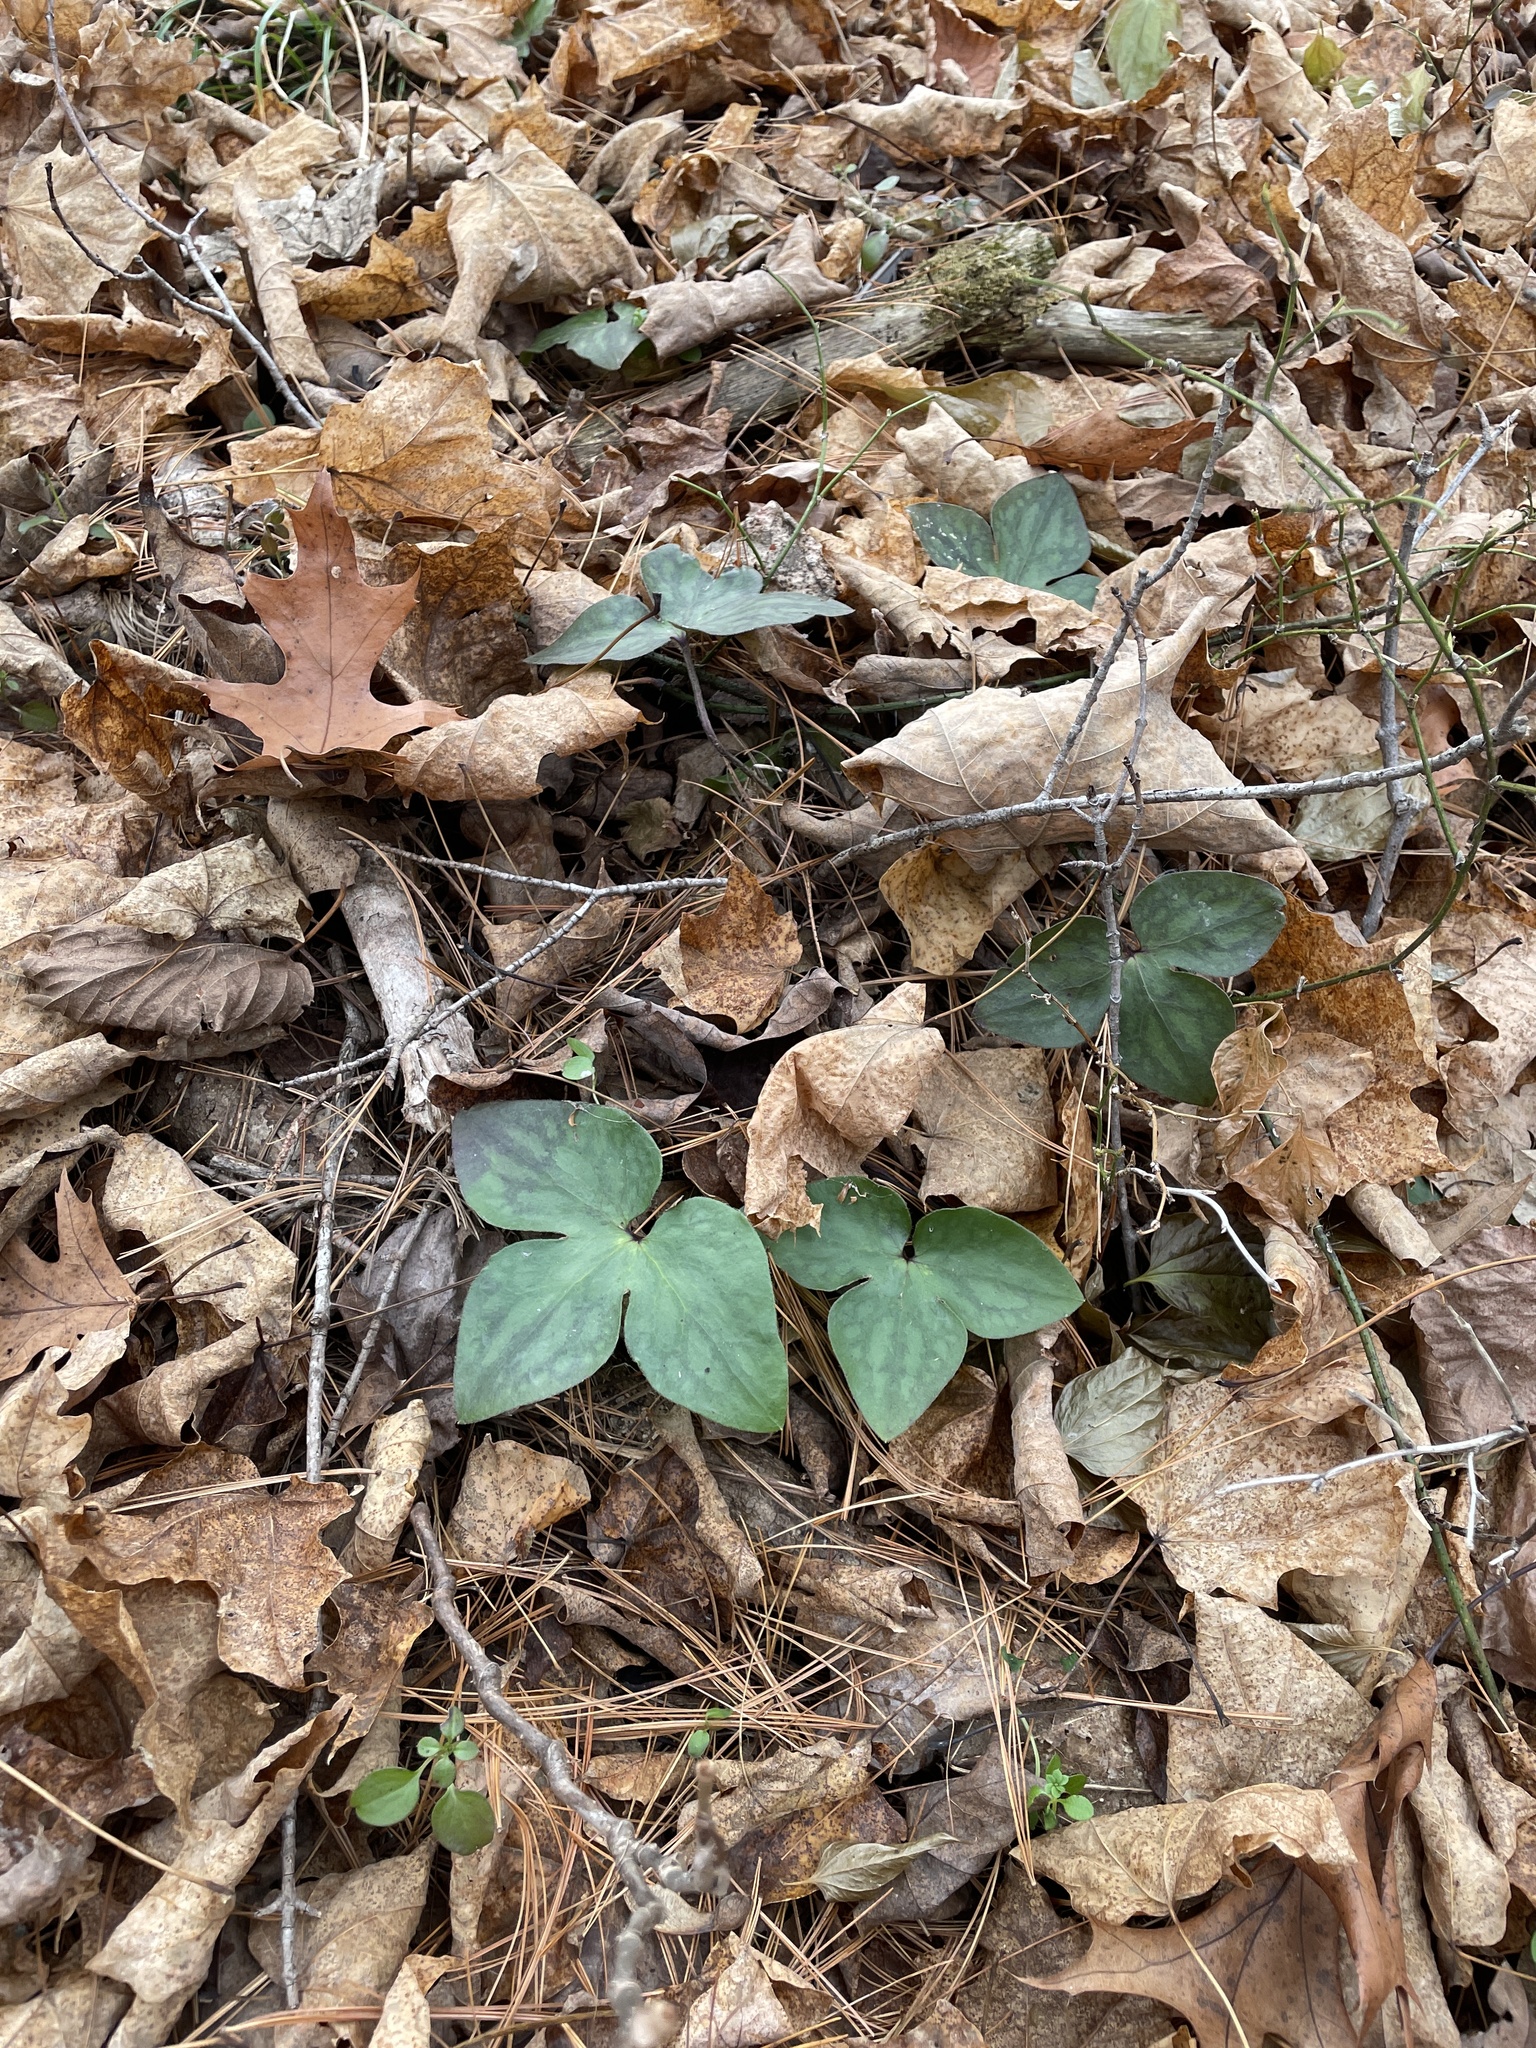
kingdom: Plantae
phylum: Tracheophyta
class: Magnoliopsida
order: Ranunculales
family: Ranunculaceae
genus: Hepatica
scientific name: Hepatica acutiloba
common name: Sharp-lobed hepatica
